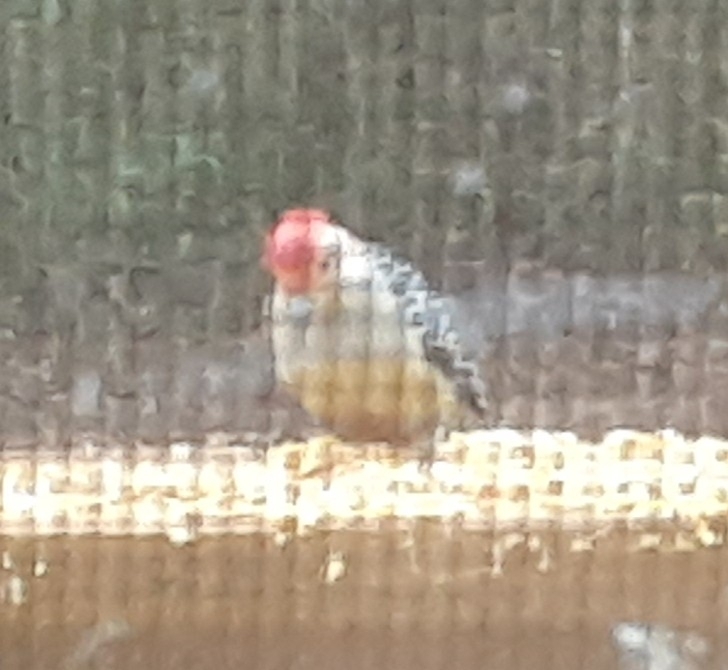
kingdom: Animalia
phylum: Chordata
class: Aves
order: Piciformes
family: Picidae
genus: Melanerpes
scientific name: Melanerpes carolinus
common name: Red-bellied woodpecker
